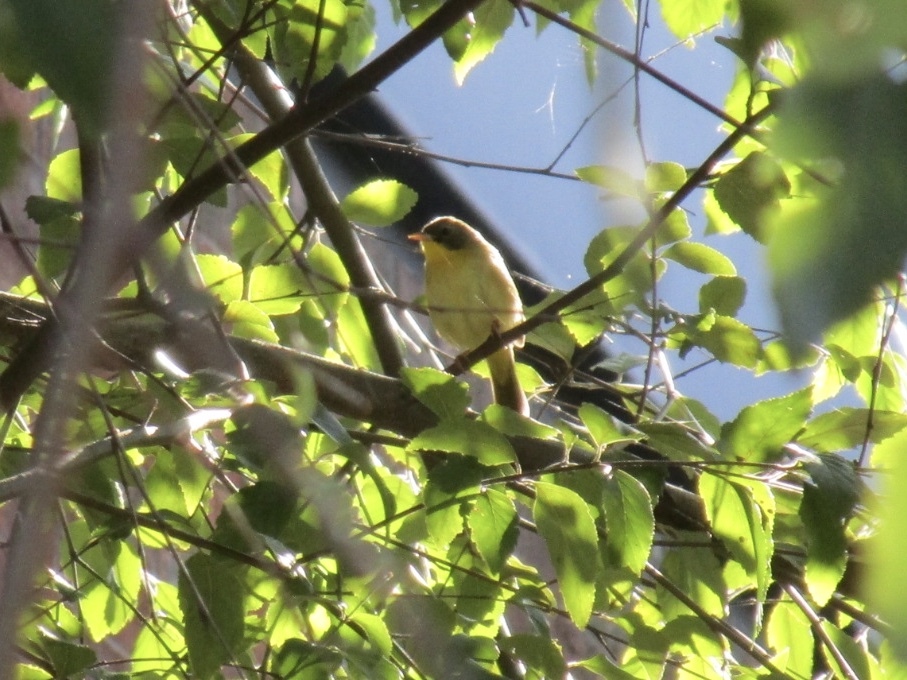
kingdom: Animalia
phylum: Chordata
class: Aves
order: Passeriformes
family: Parulidae
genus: Geothlypis
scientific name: Geothlypis trichas
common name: Common yellowthroat
